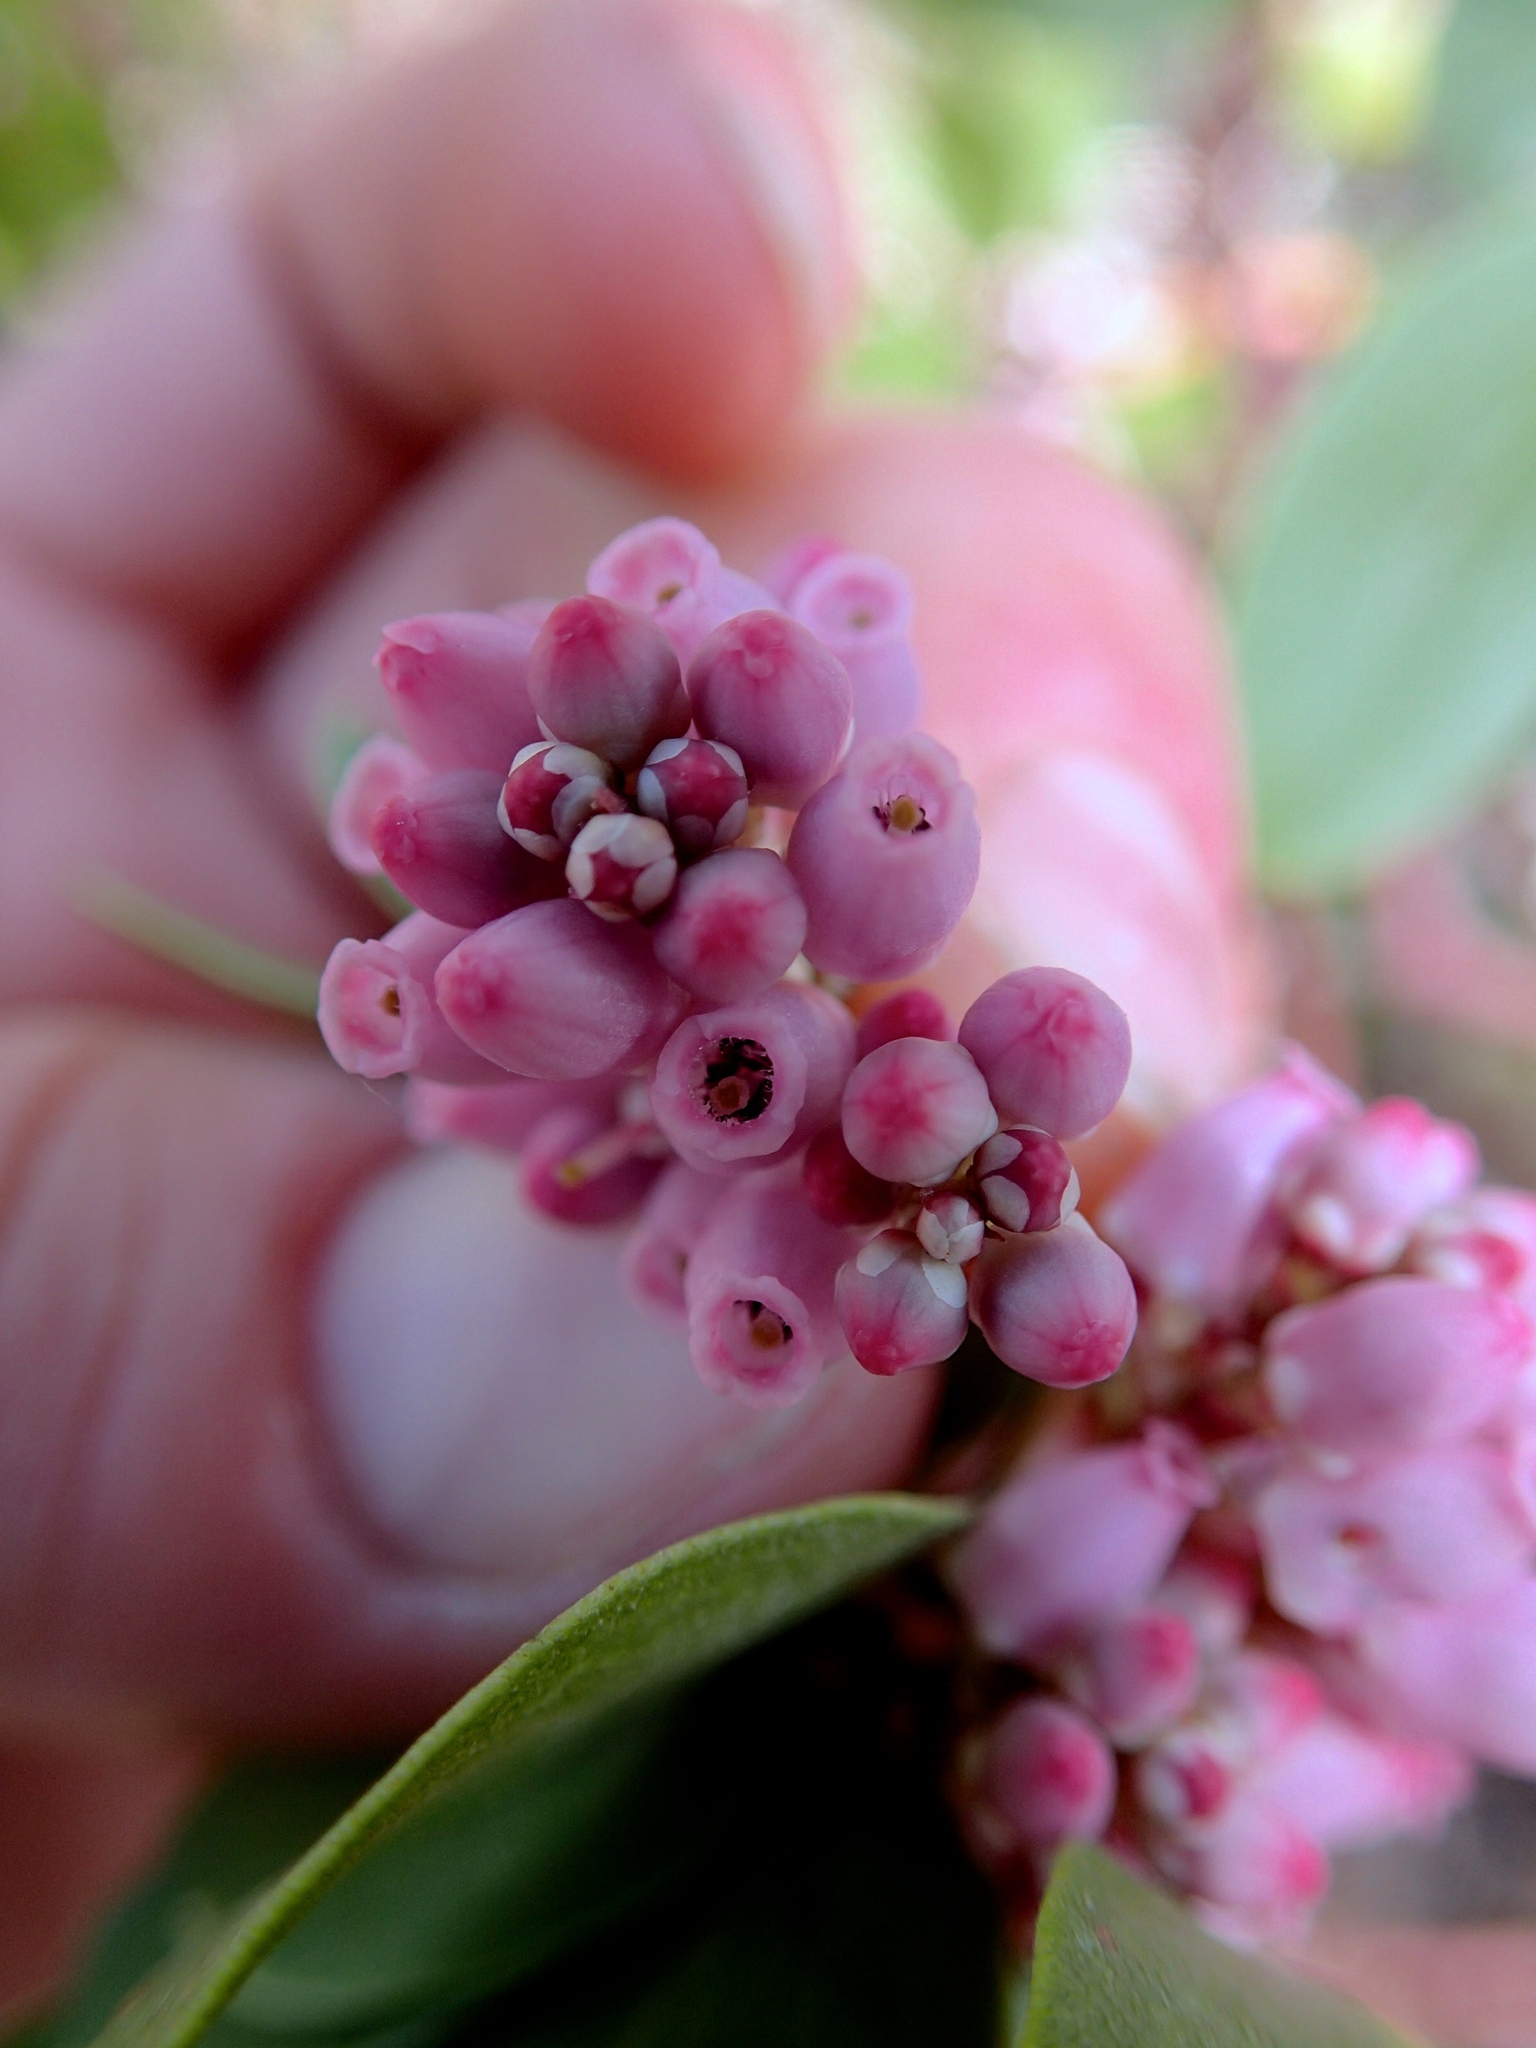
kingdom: Plantae
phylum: Tracheophyta
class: Magnoliopsida
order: Ericales
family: Ericaceae
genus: Arctostaphylos
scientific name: Arctostaphylos patula
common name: Green-leaf manzanita
